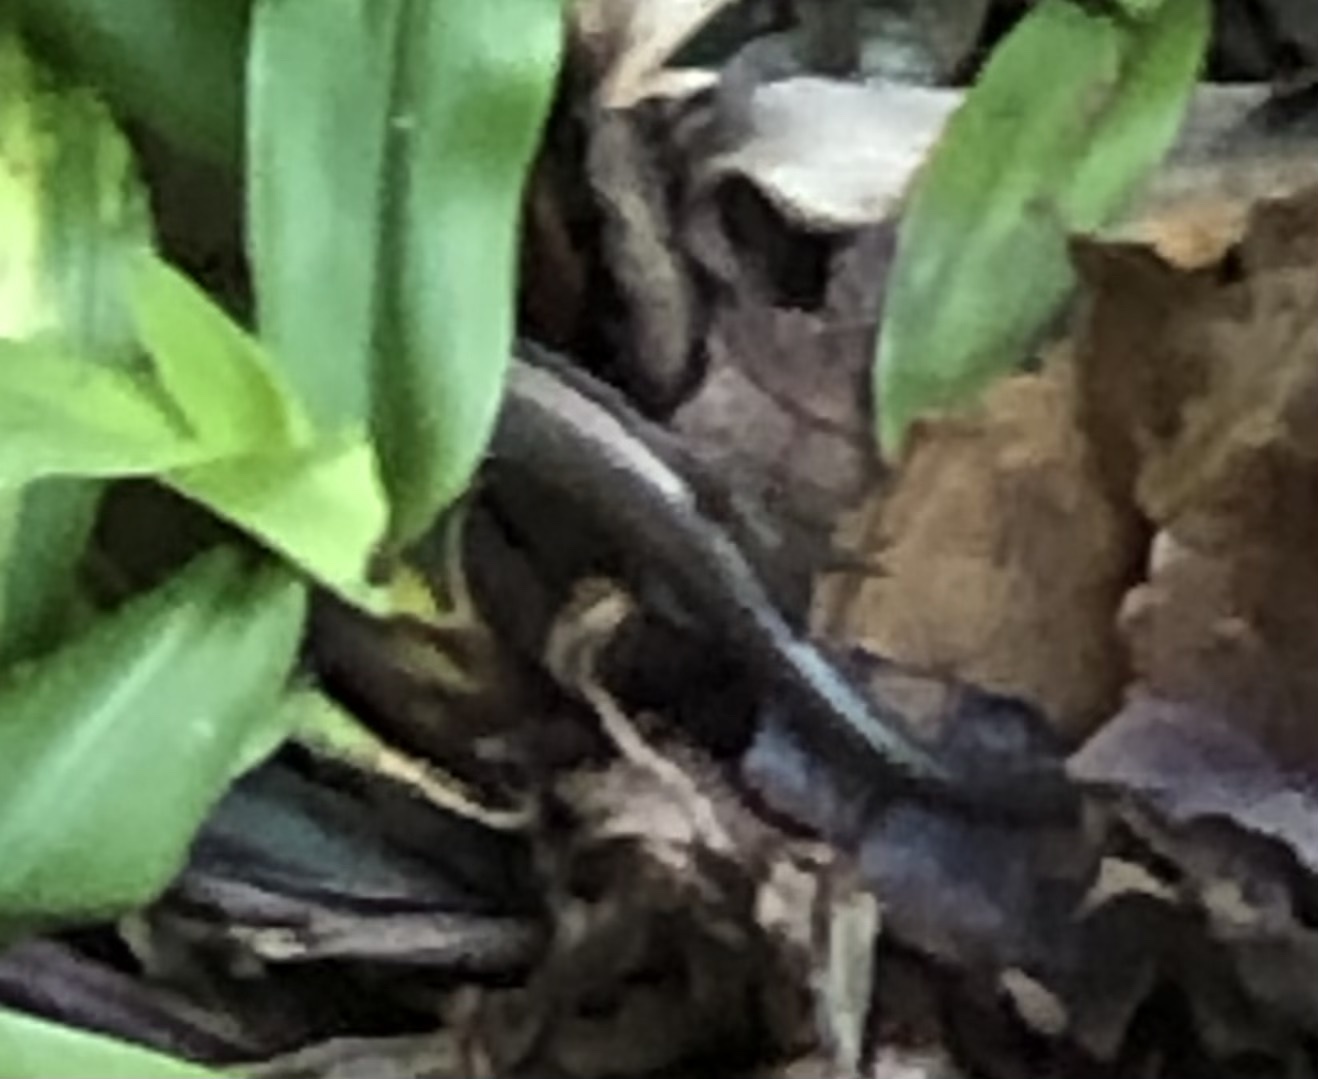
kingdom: Animalia
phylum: Chordata
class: Squamata
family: Scincidae
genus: Scincella
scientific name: Scincella lateralis
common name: Ground skink
